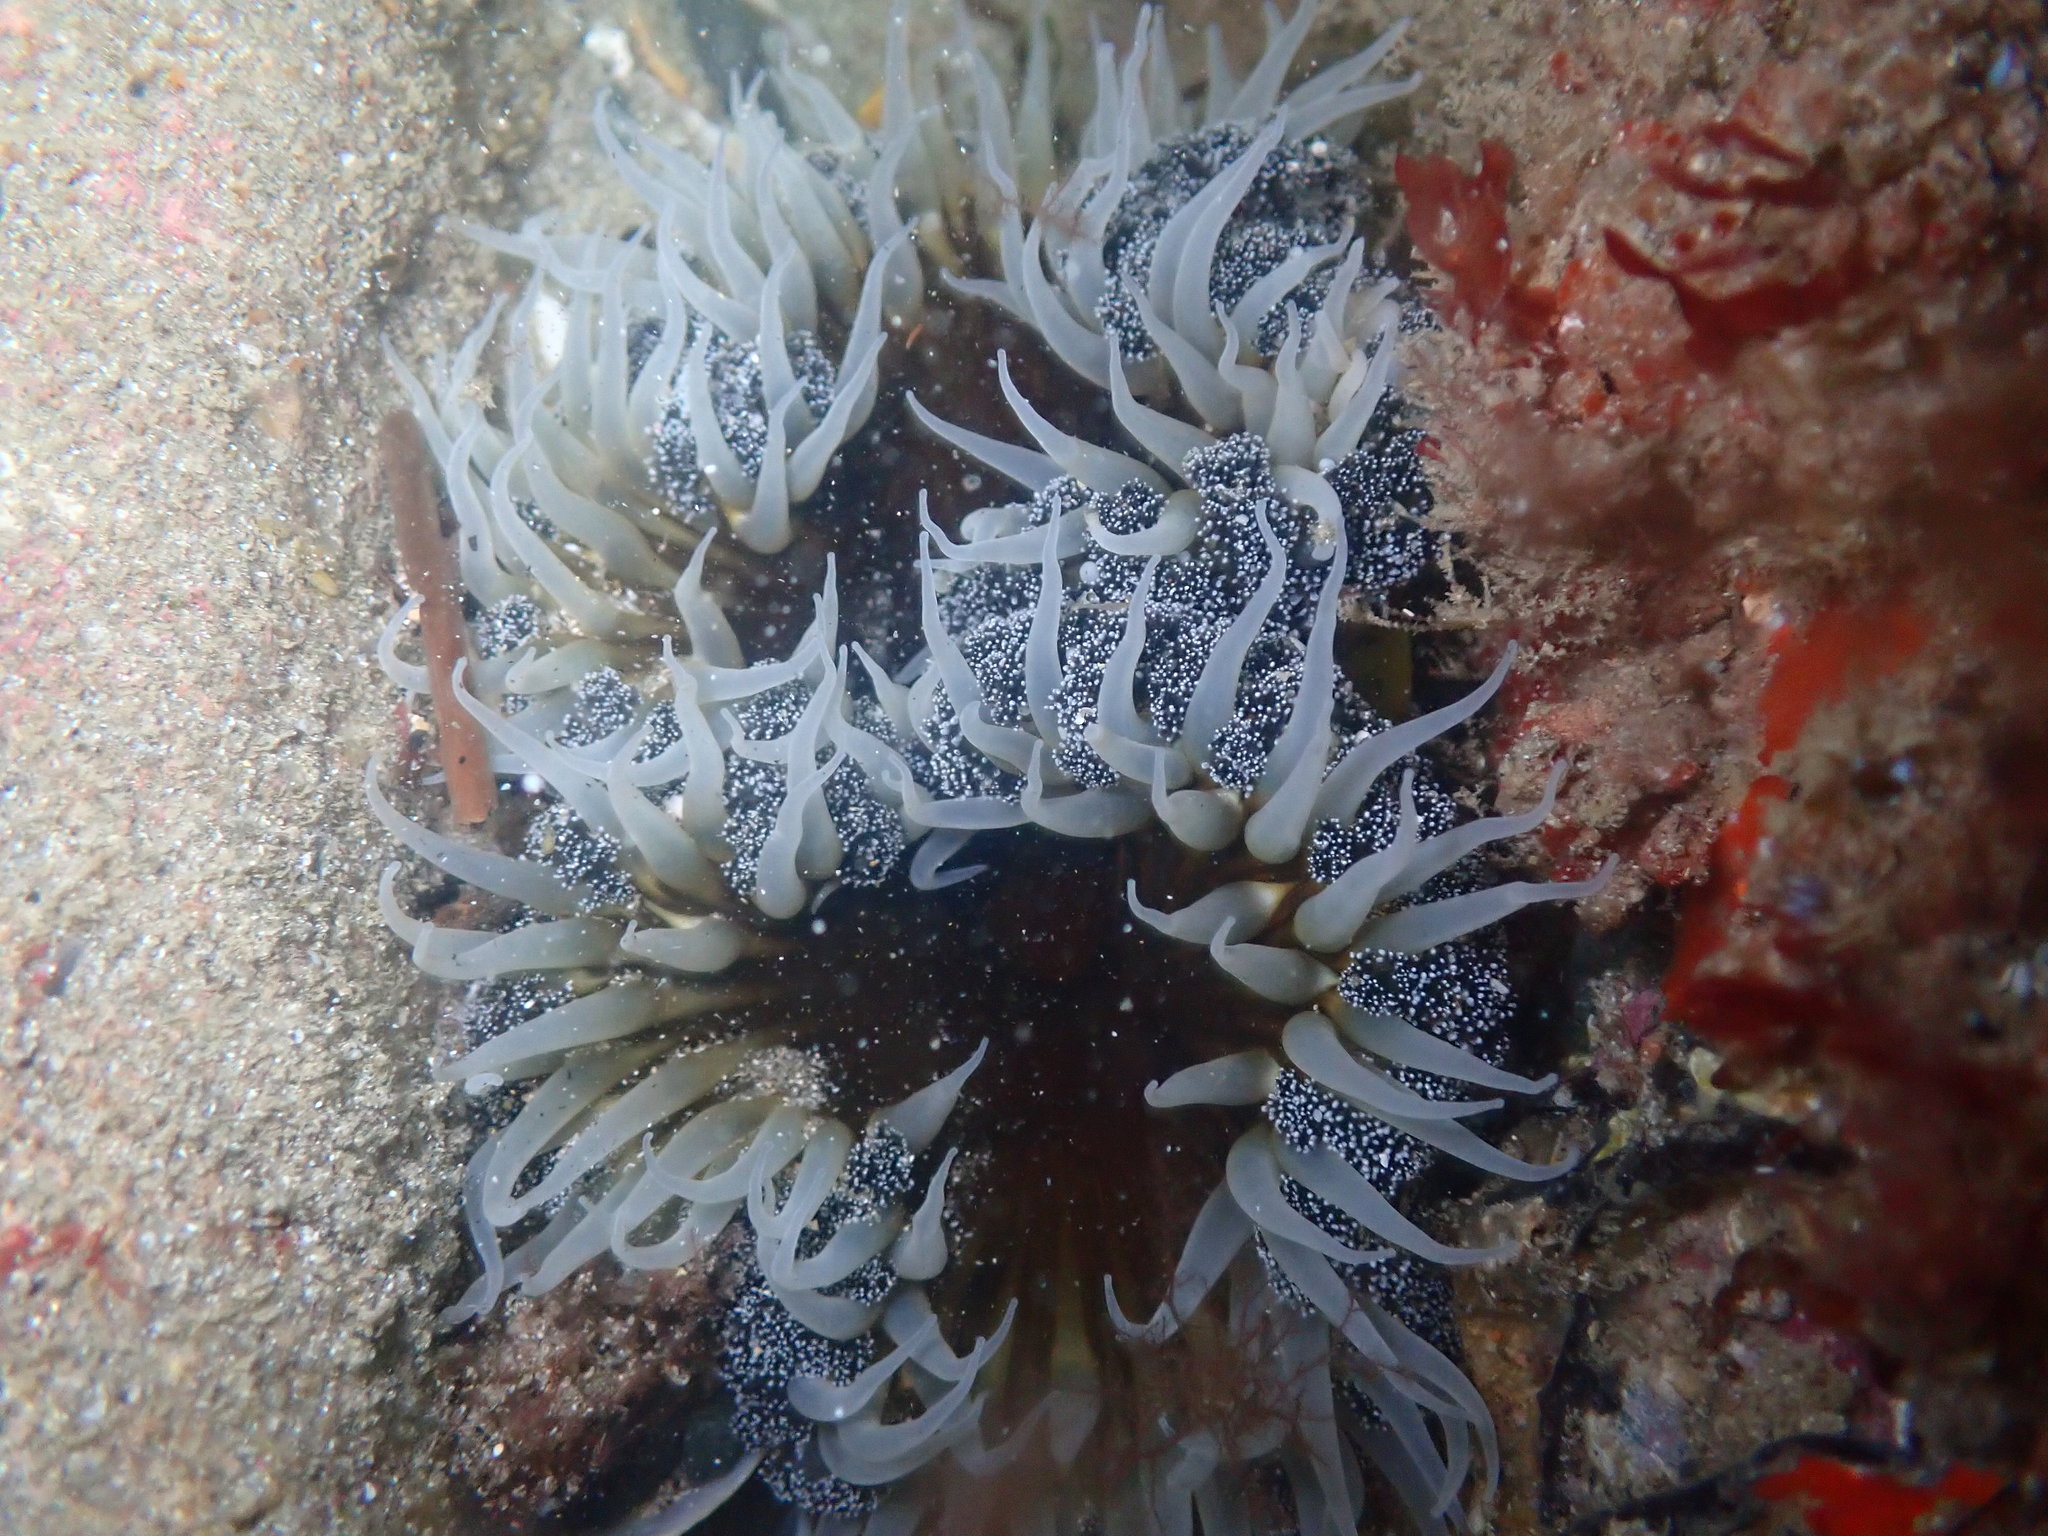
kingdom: Animalia
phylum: Cnidaria
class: Anthozoa
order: Actiniaria
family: Actiniidae
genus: Oulactis
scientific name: Oulactis magna
